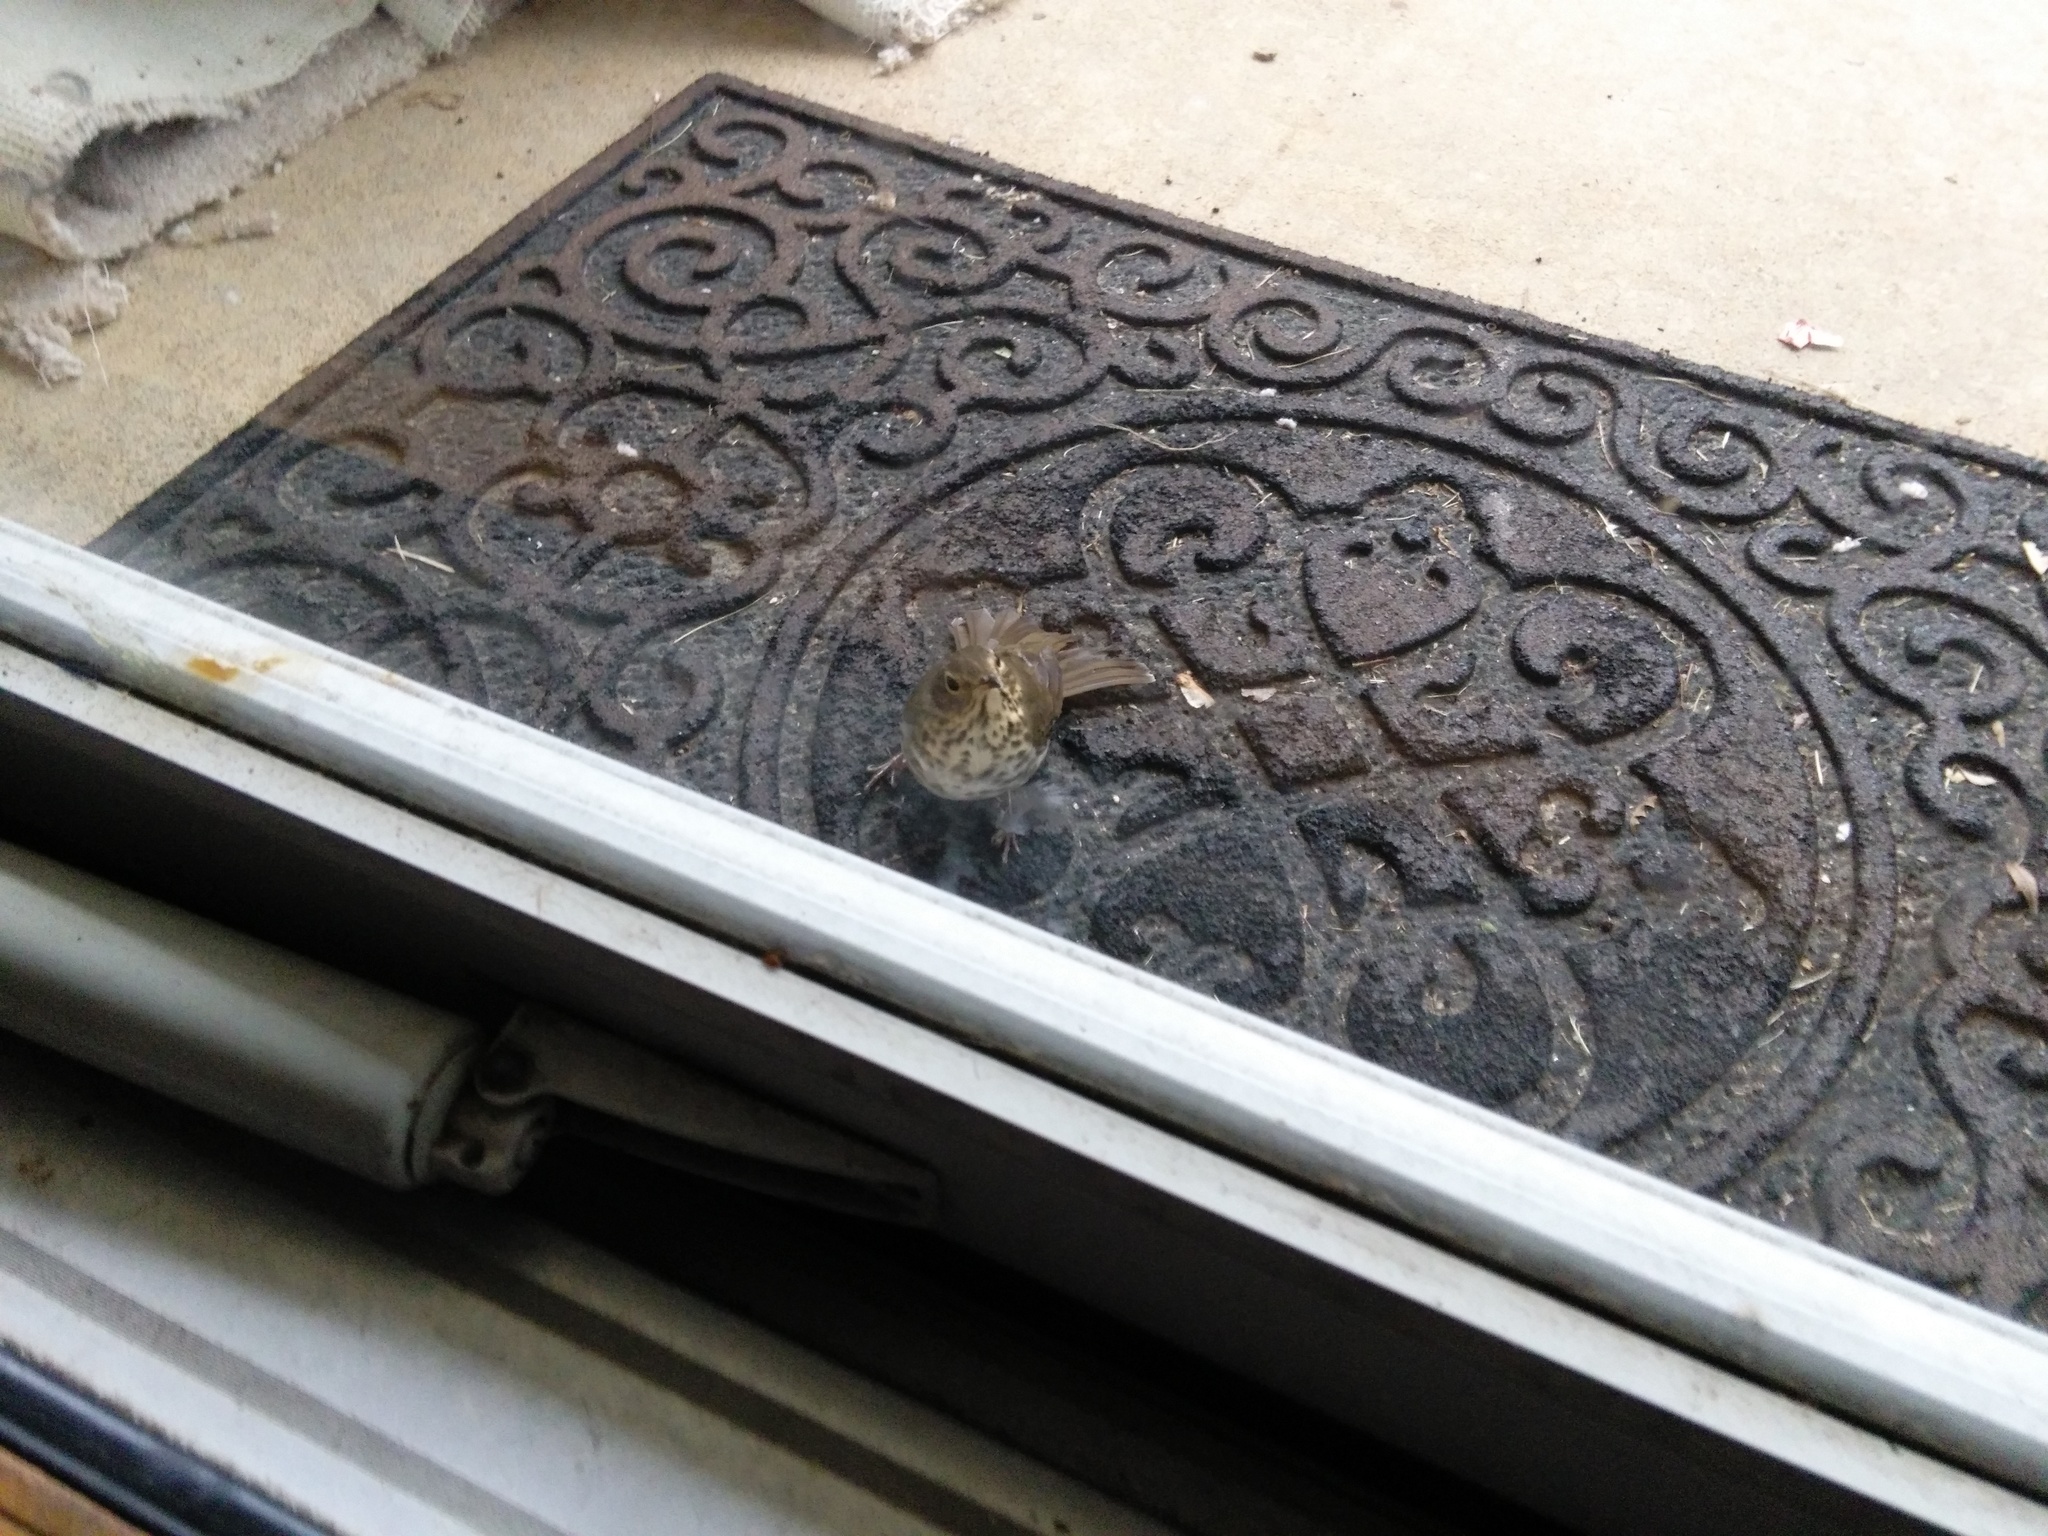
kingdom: Animalia
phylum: Chordata
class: Aves
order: Passeriformes
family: Turdidae
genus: Catharus
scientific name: Catharus ustulatus
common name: Swainson's thrush
